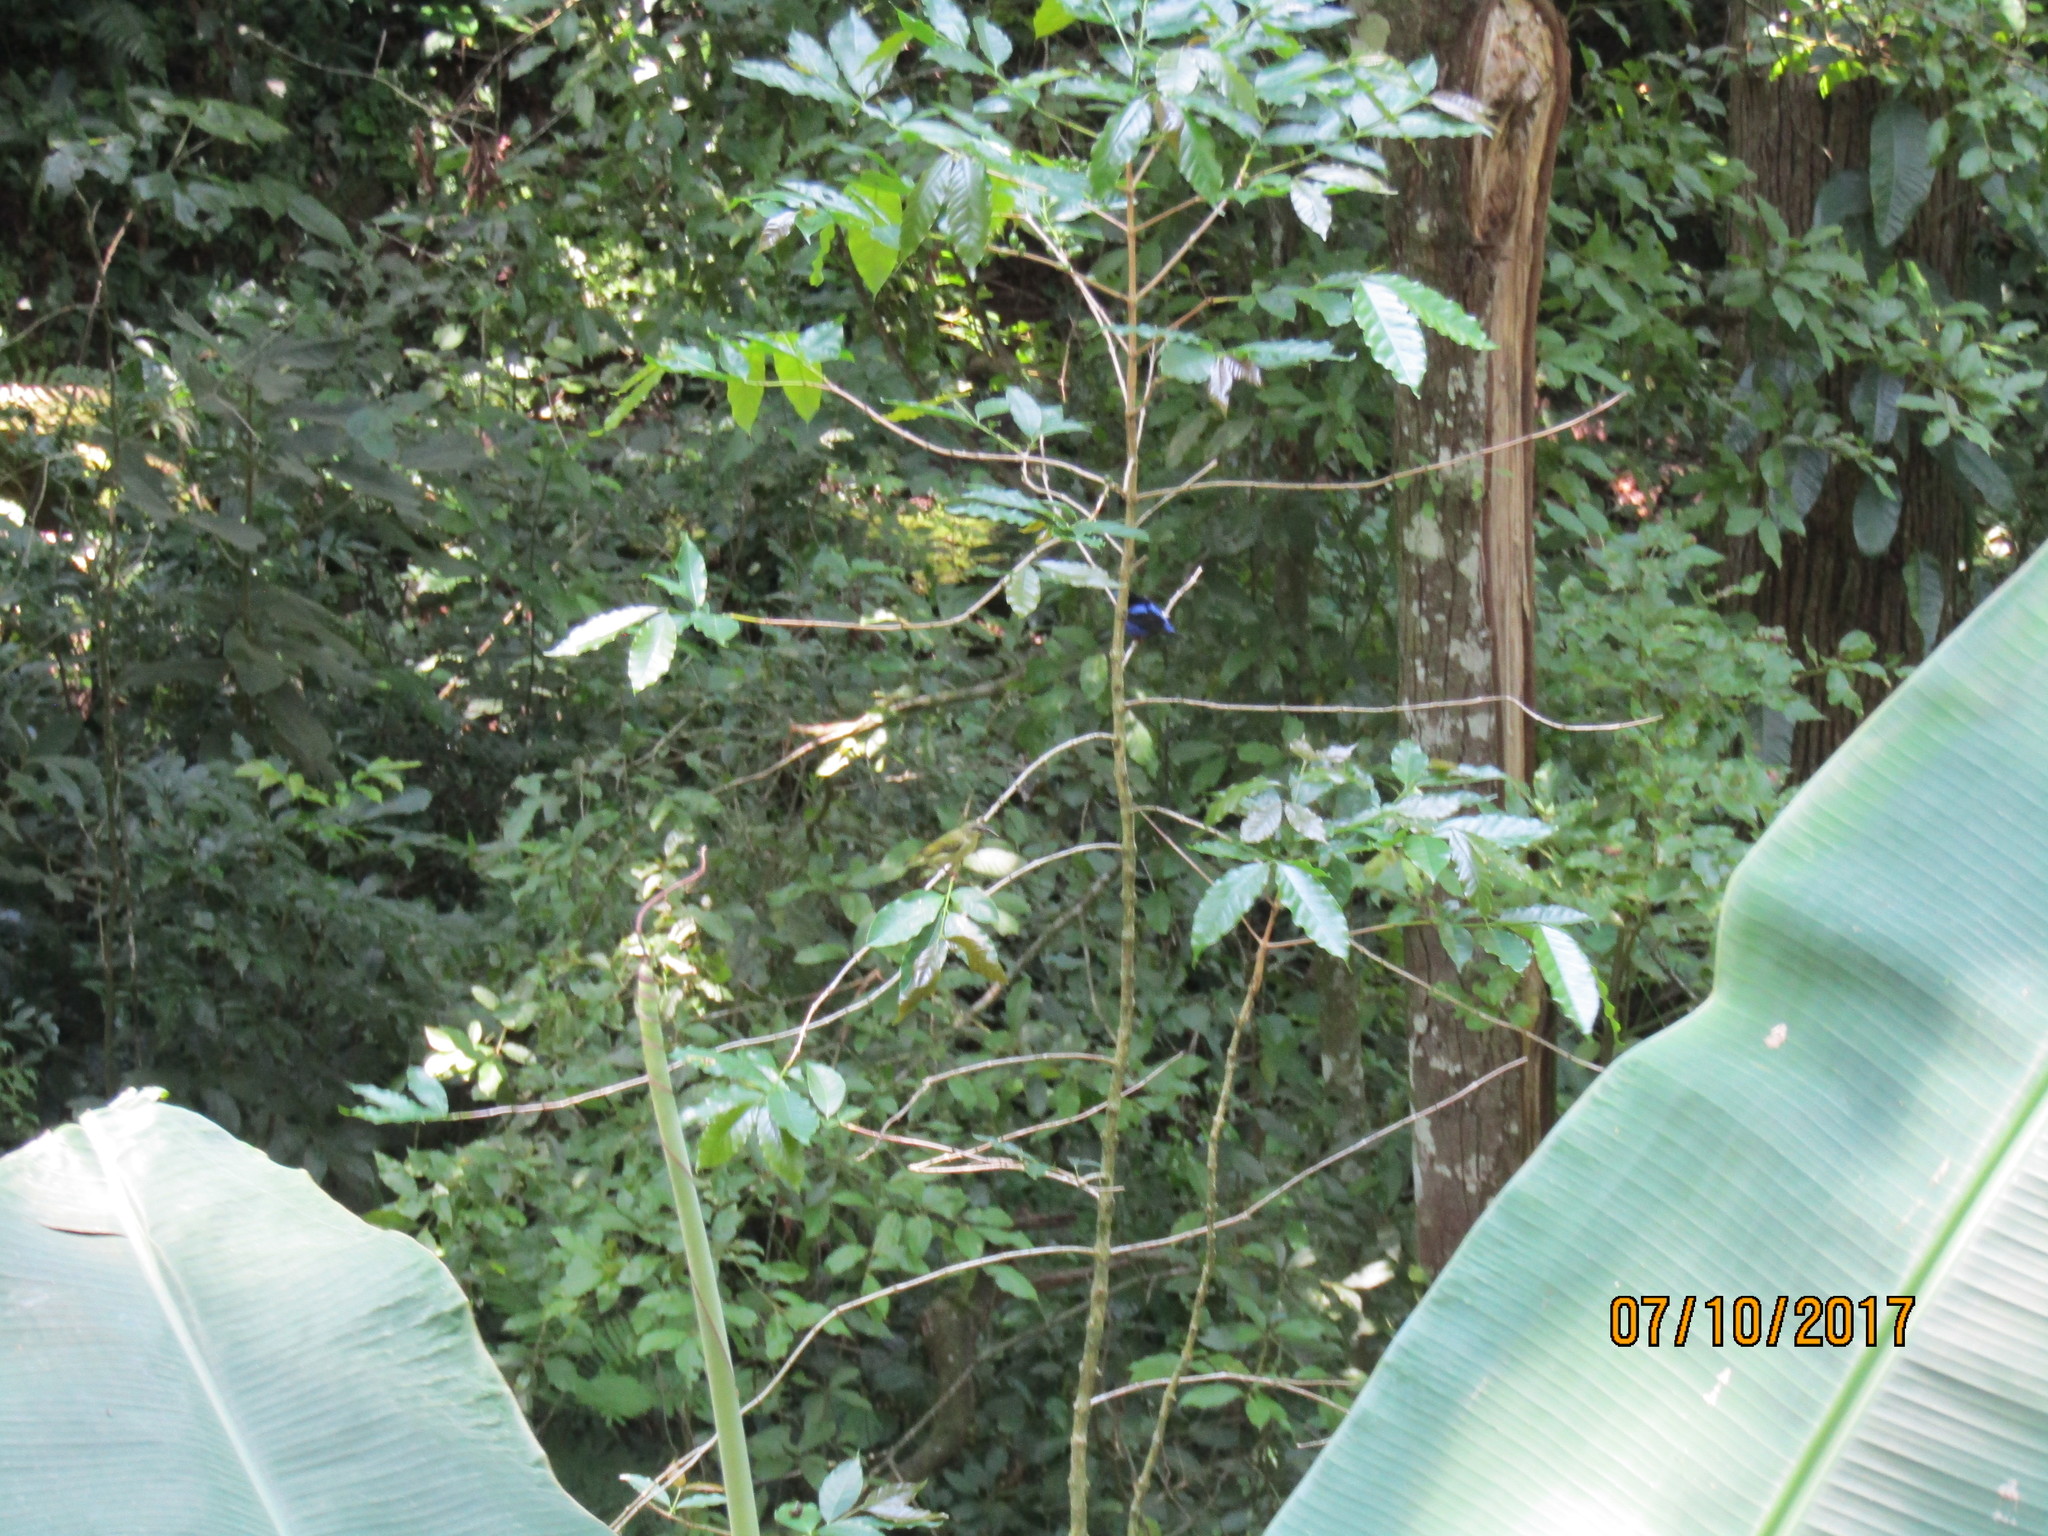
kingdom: Animalia
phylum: Chordata
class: Aves
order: Passeriformes
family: Thraupidae
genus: Cyanerpes
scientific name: Cyanerpes cyaneus
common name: Red-legged honeycreeper
